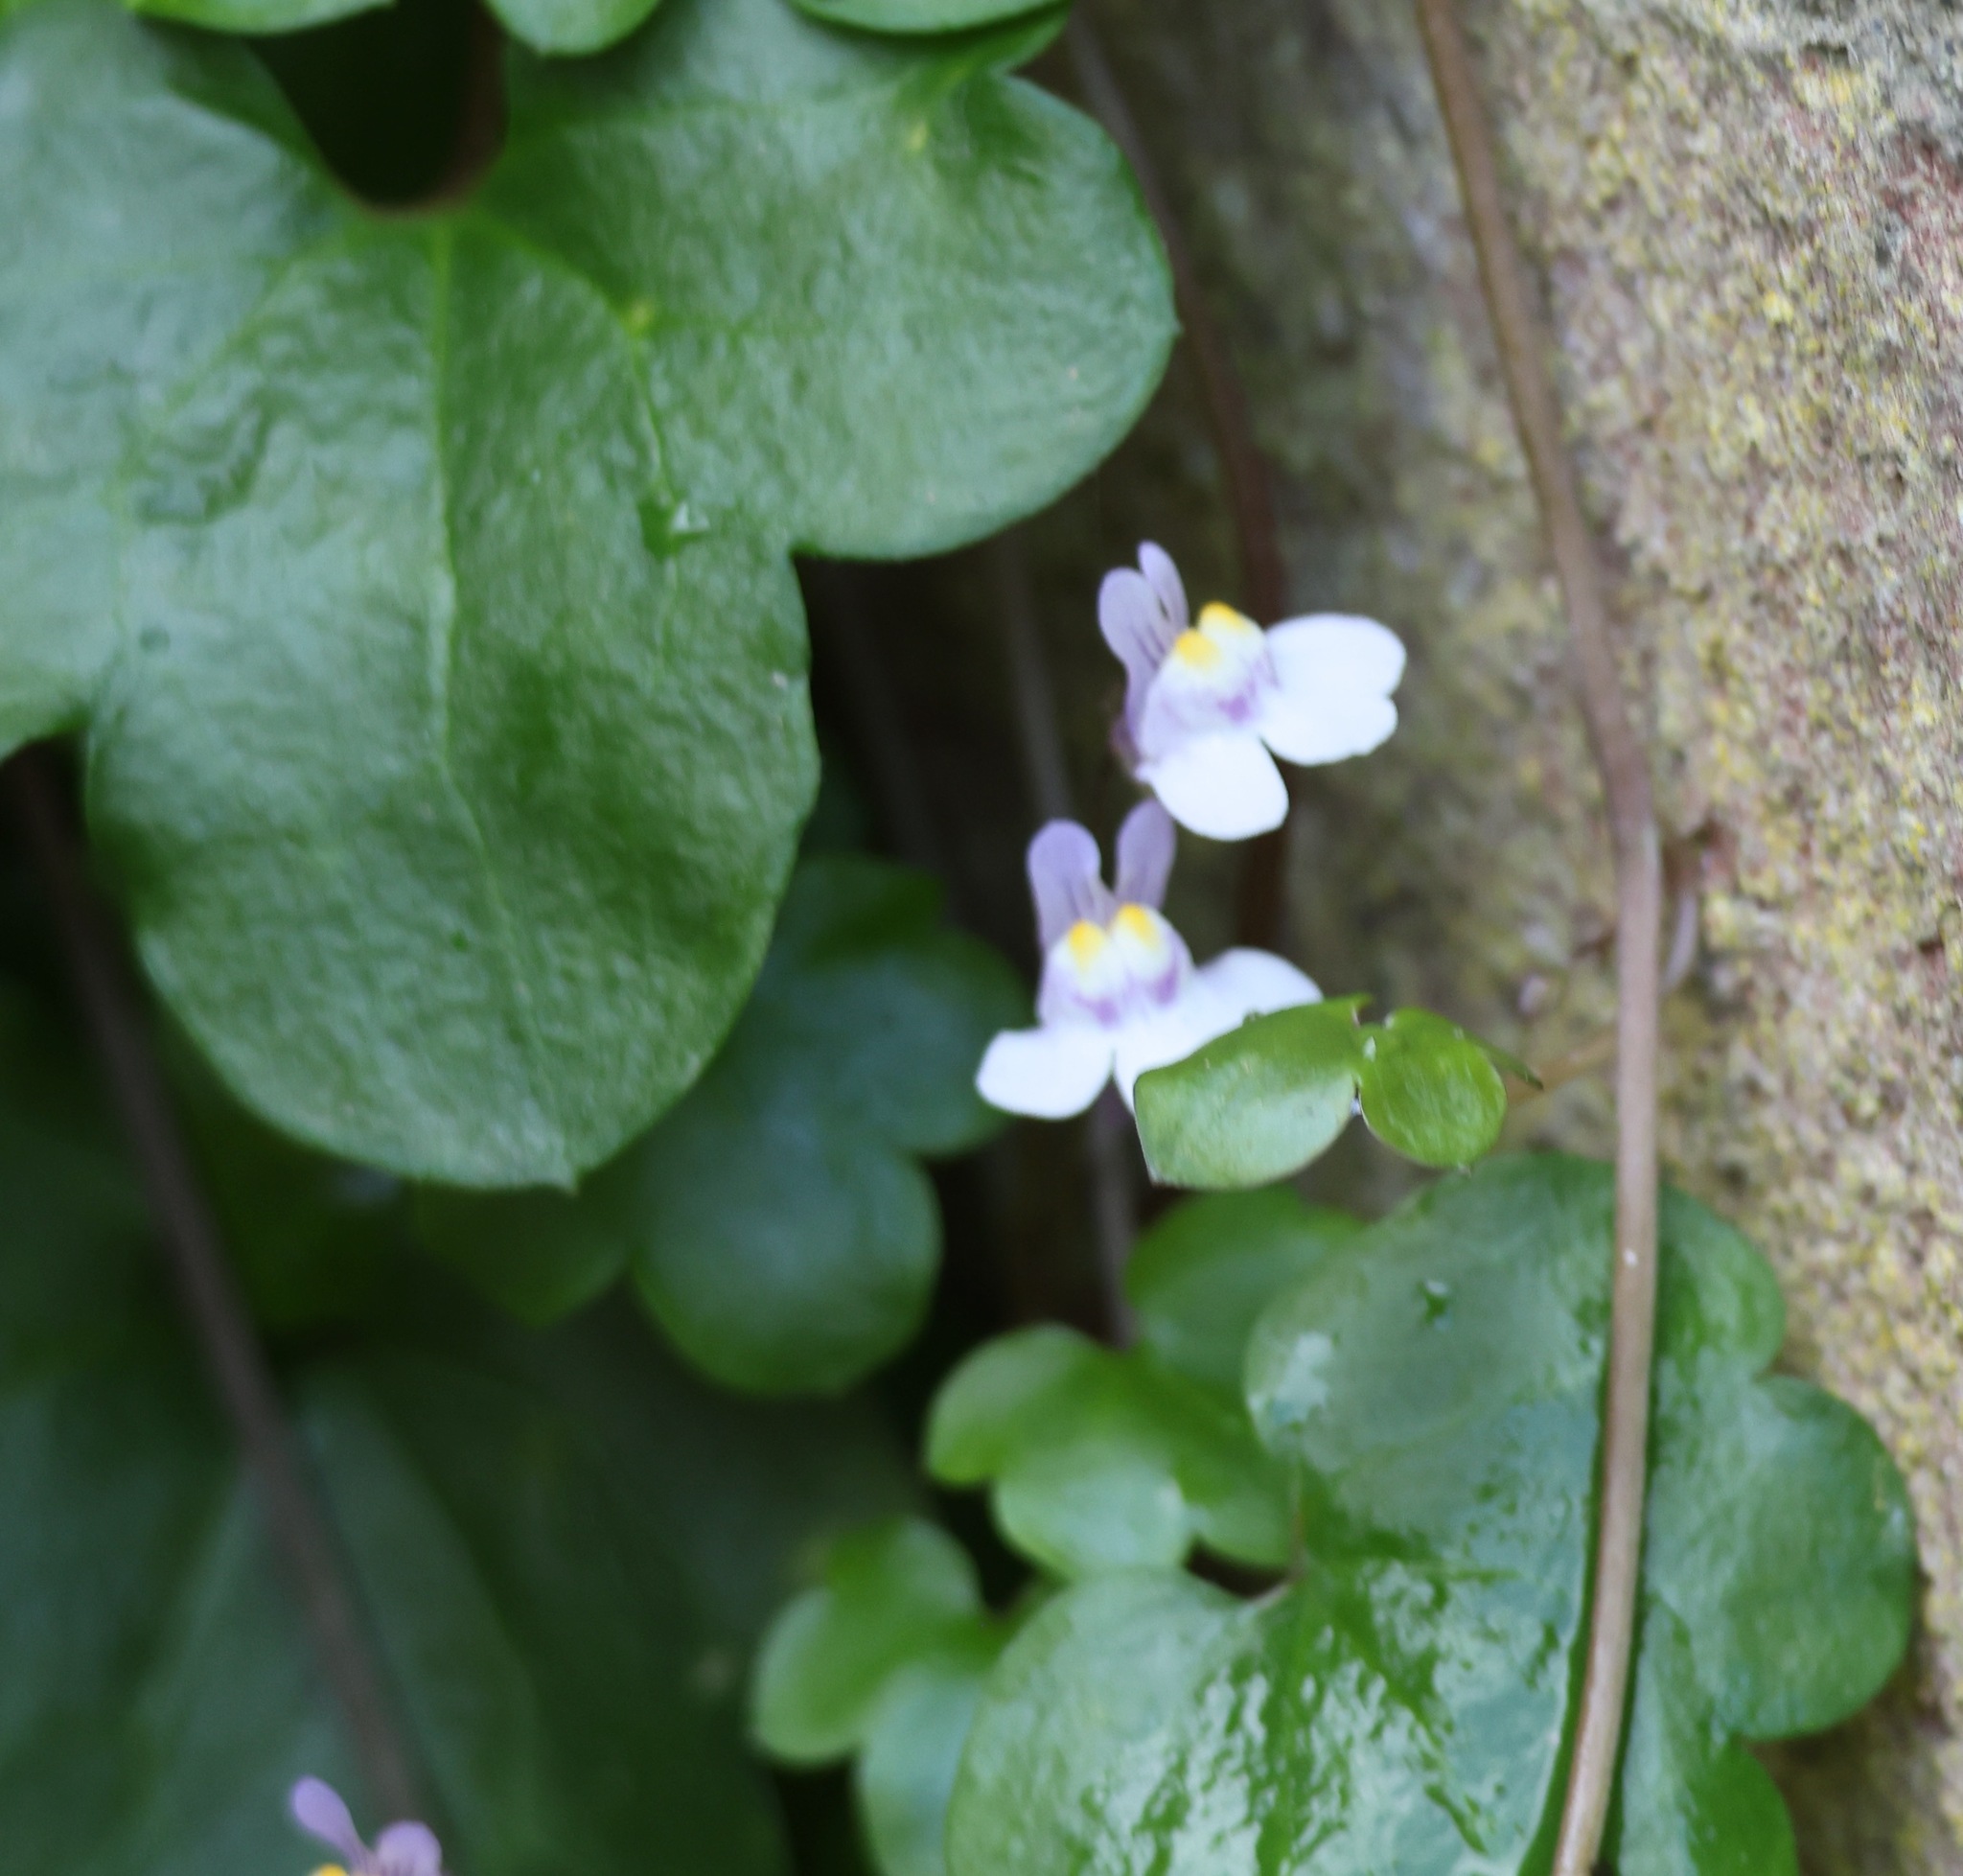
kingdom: Plantae
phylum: Tracheophyta
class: Magnoliopsida
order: Lamiales
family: Plantaginaceae
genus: Cymbalaria
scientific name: Cymbalaria muralis
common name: Ivy-leaved toadflax
